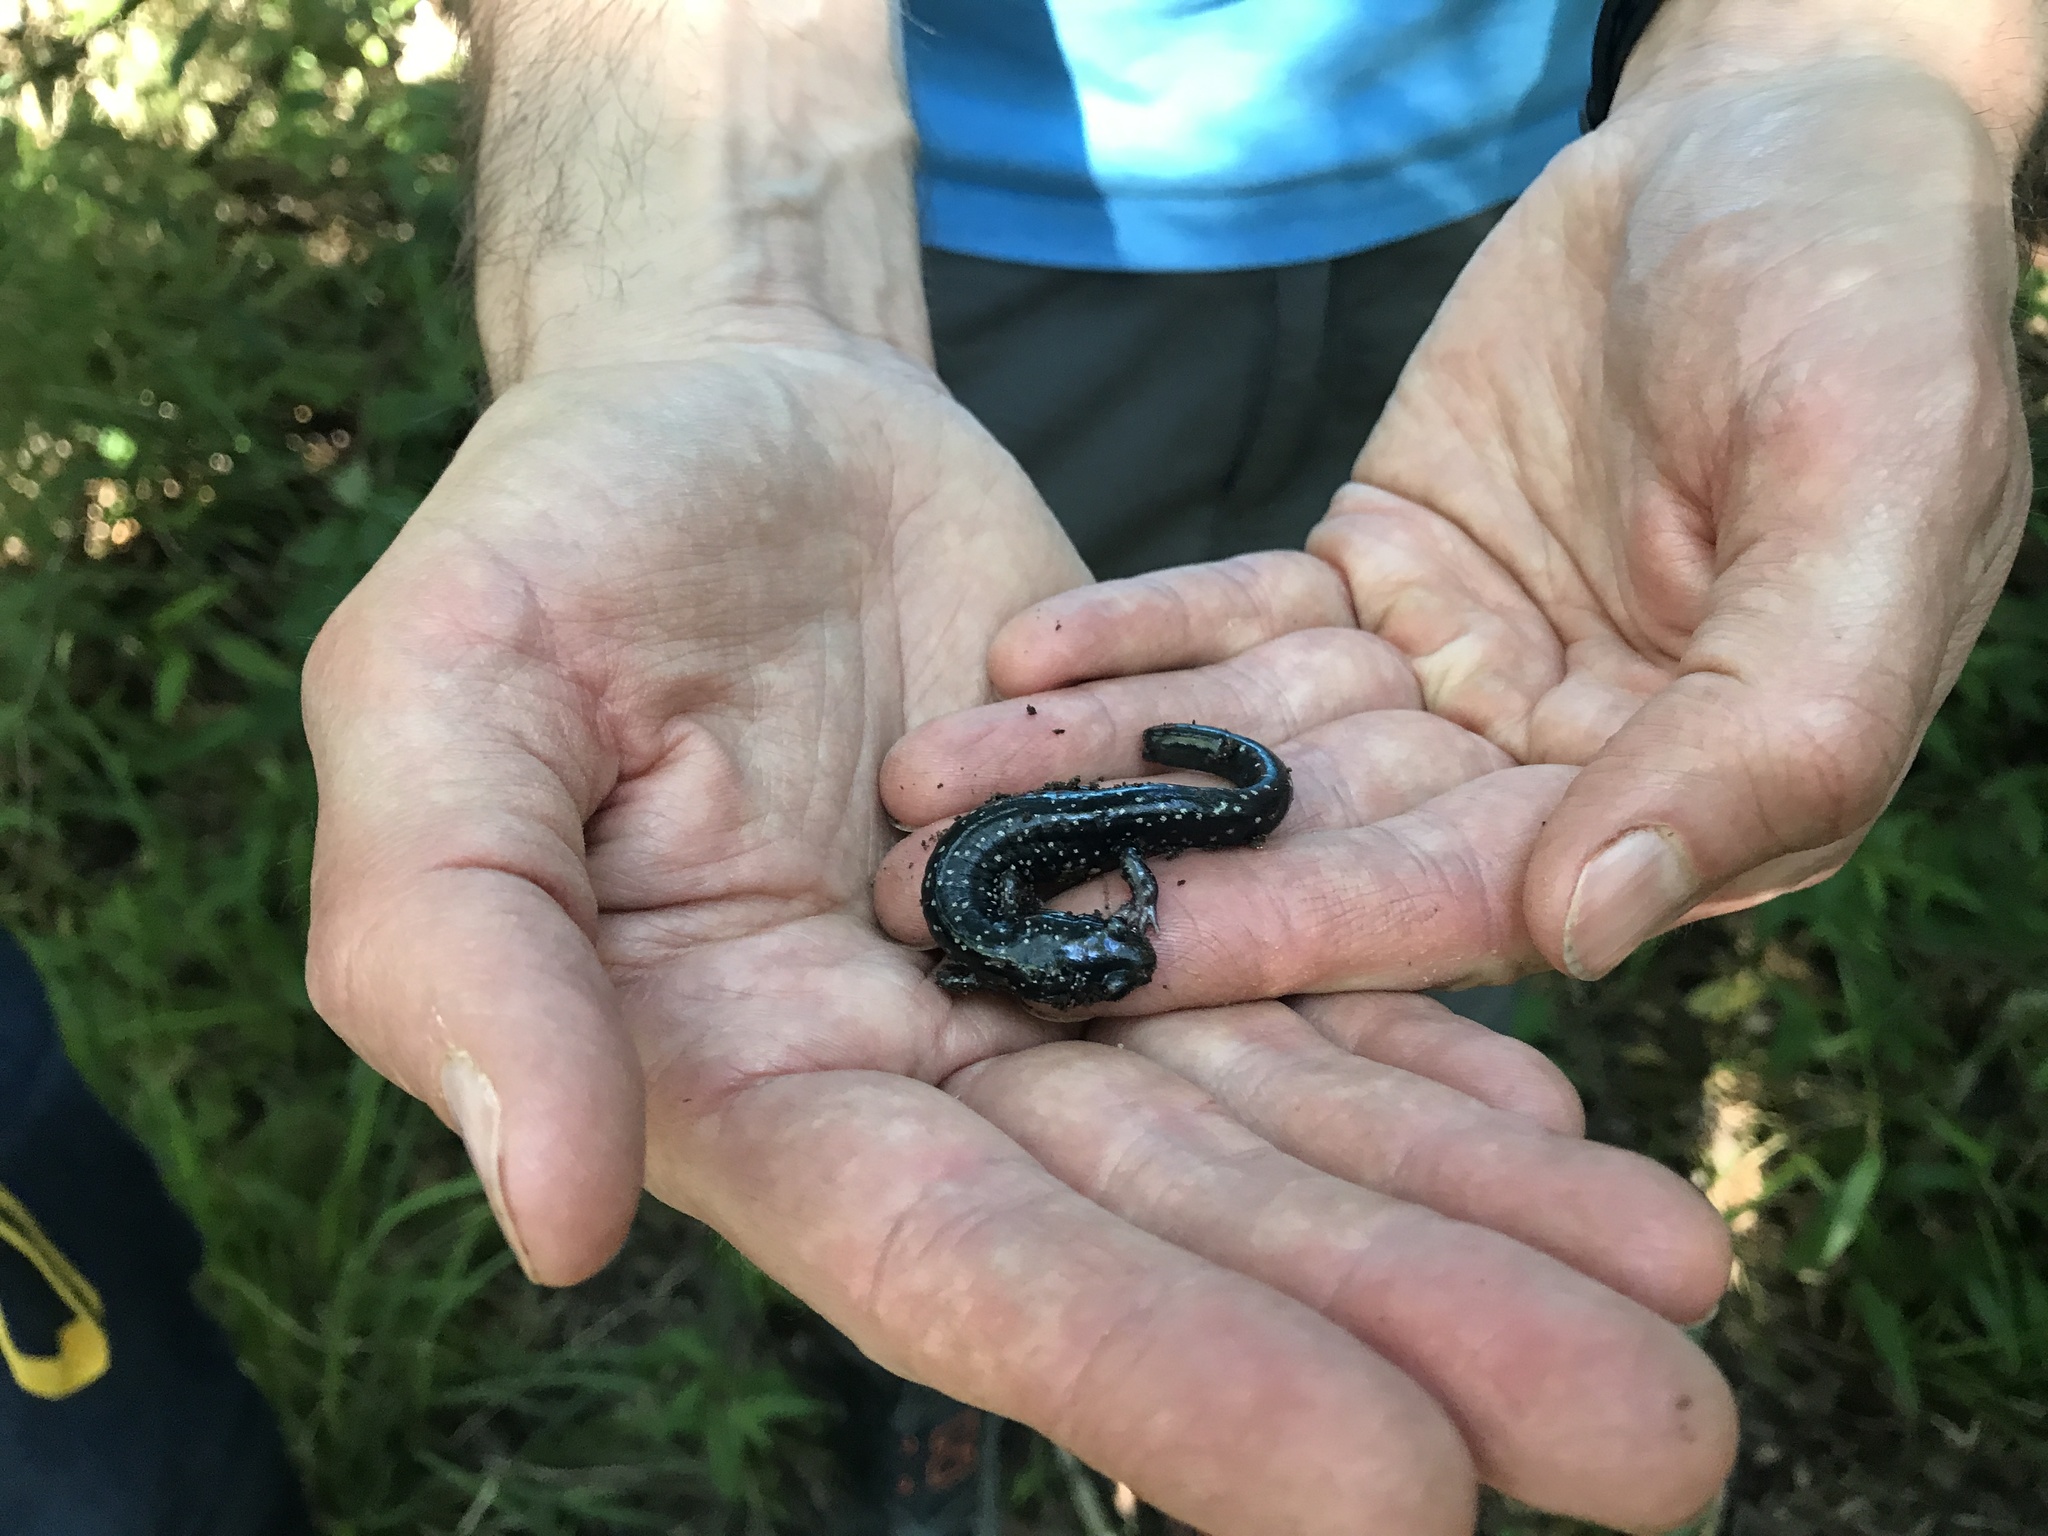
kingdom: Animalia
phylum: Chordata
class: Amphibia
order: Caudata
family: Plethodontidae
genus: Plethodon
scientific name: Plethodon mississippi
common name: Mississippi slimy salamander
